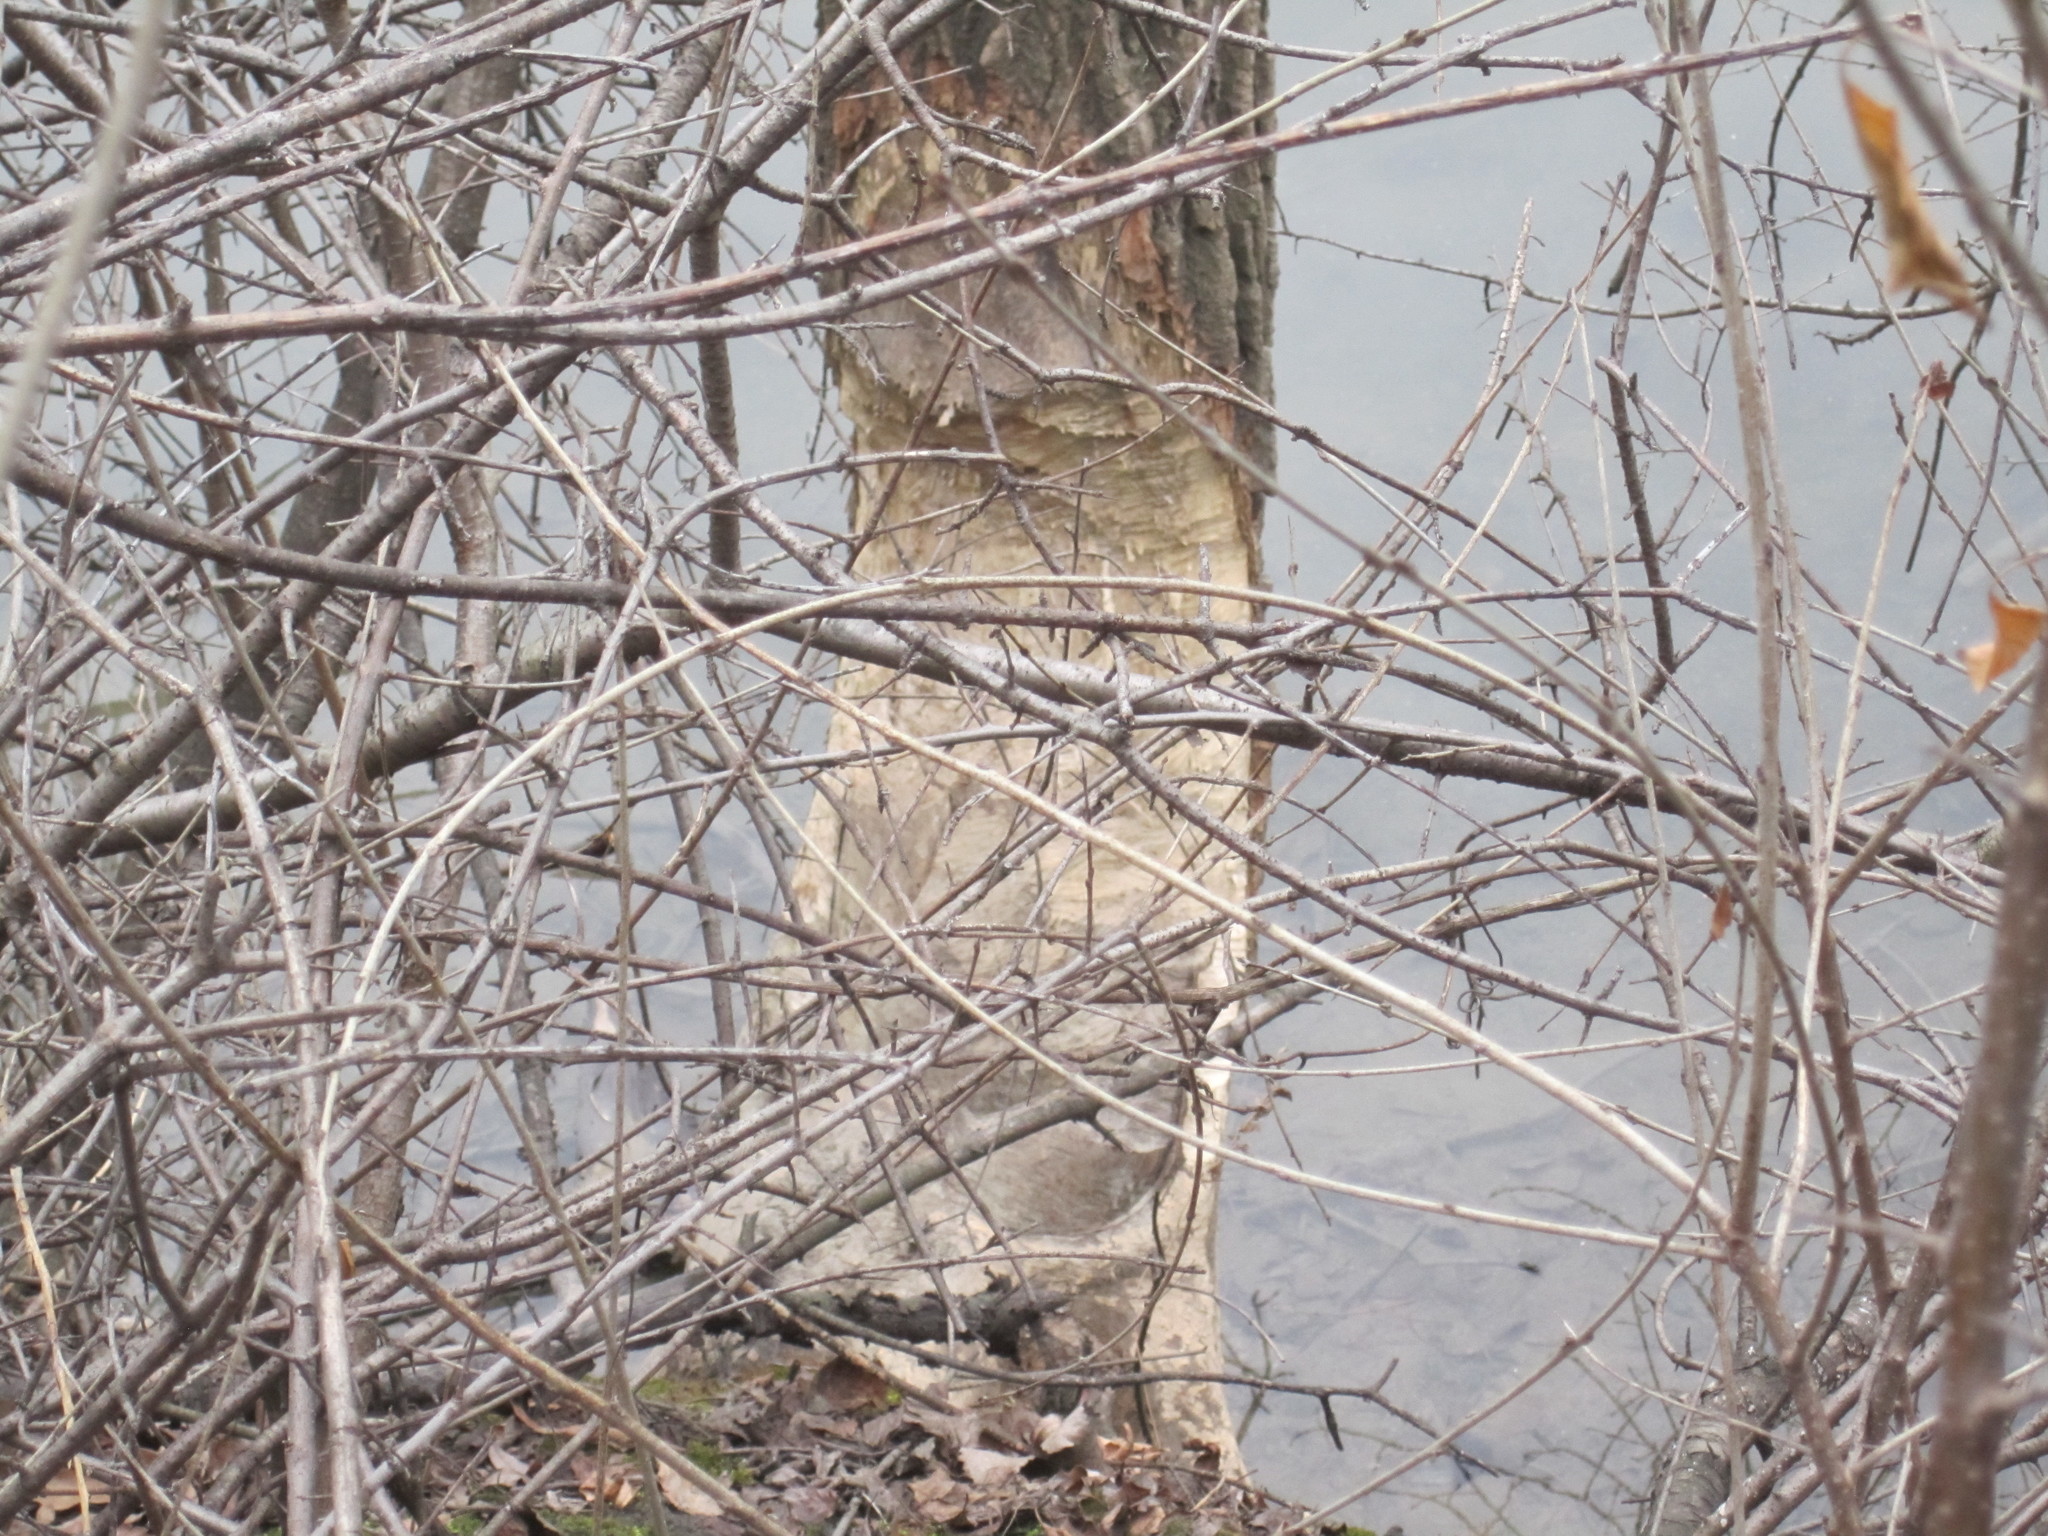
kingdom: Animalia
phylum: Chordata
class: Mammalia
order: Rodentia
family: Castoridae
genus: Castor
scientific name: Castor canadensis
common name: American beaver
